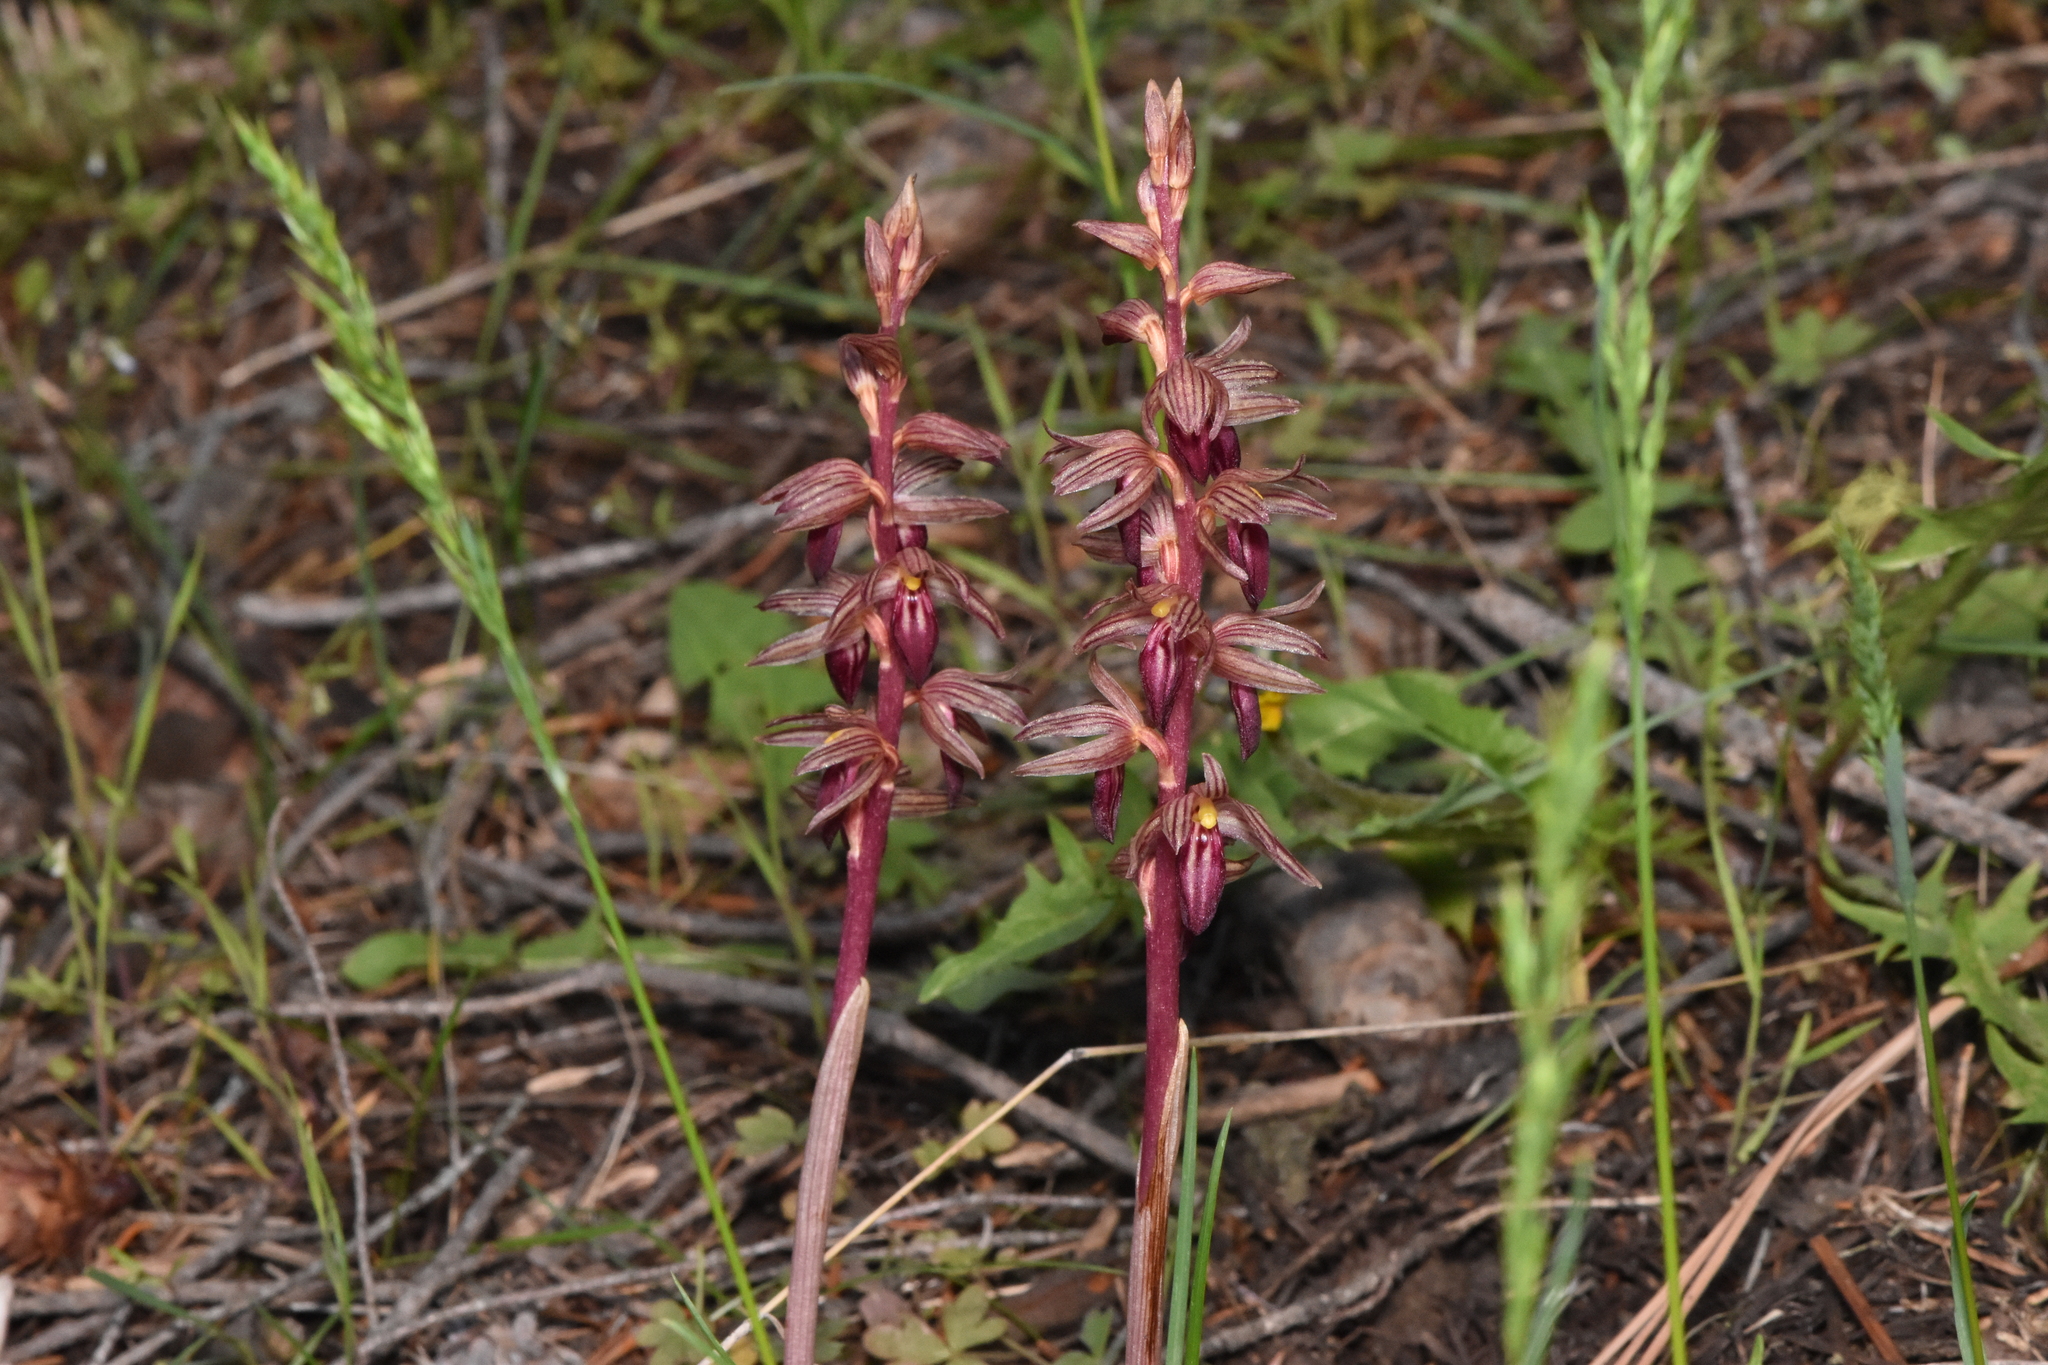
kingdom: Plantae
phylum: Tracheophyta
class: Liliopsida
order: Asparagales
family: Orchidaceae
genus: Corallorhiza
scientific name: Corallorhiza striata
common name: Hooded coralroot
